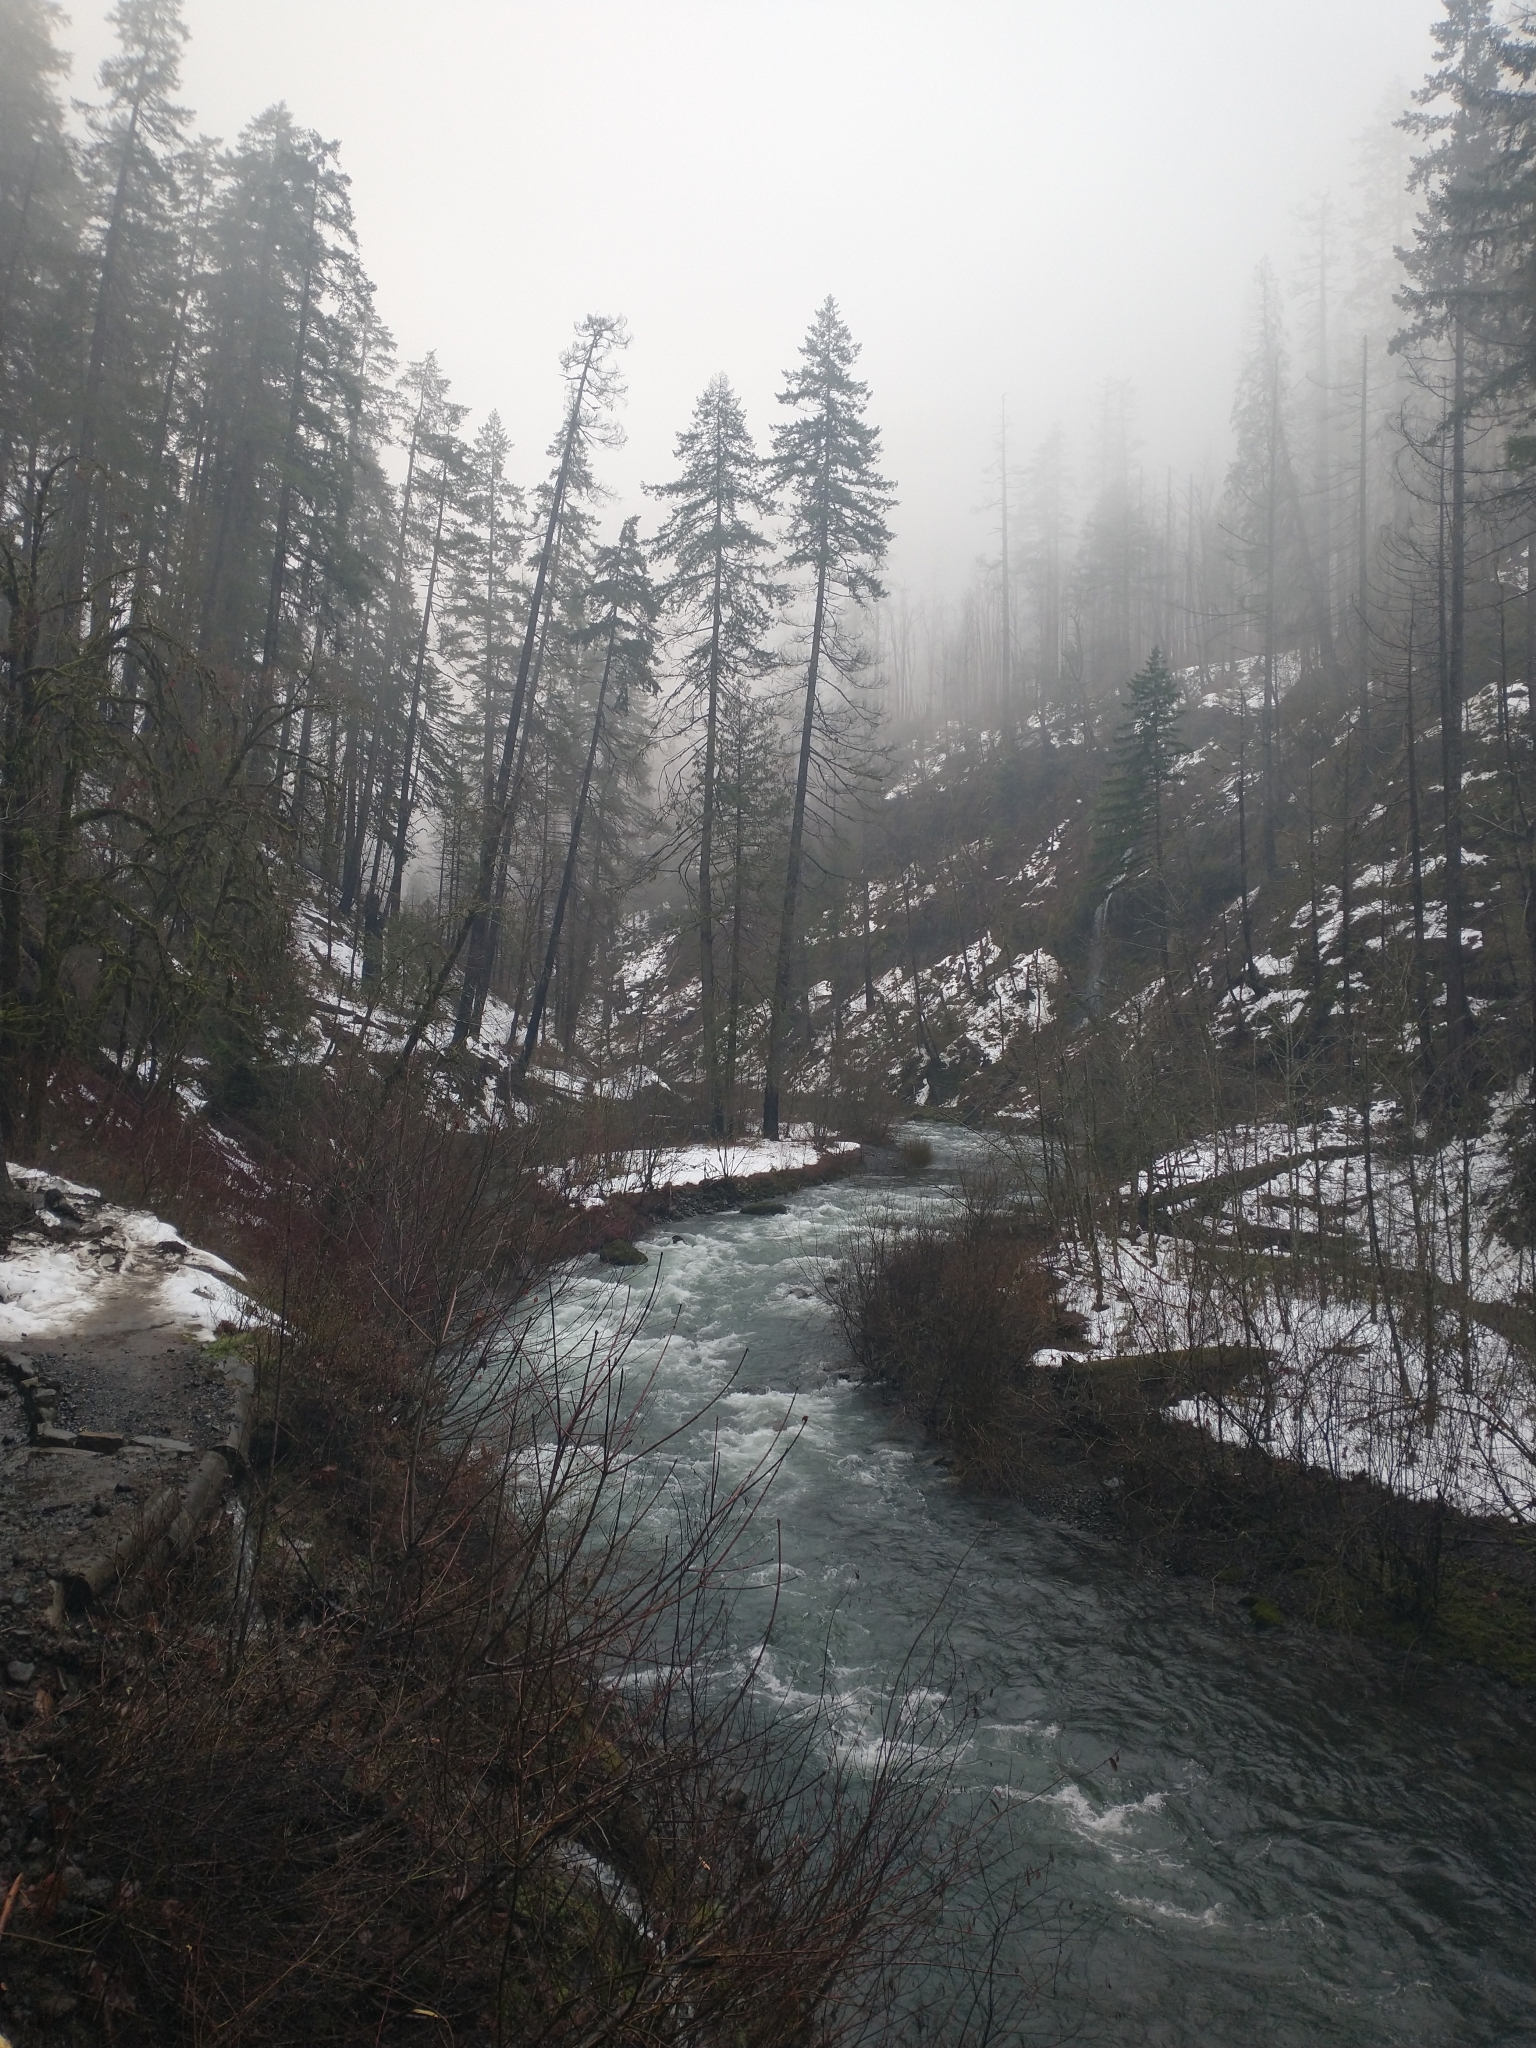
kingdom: Plantae
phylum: Tracheophyta
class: Pinopsida
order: Pinales
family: Pinaceae
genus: Pseudotsuga
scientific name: Pseudotsuga menziesii
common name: Douglas fir
